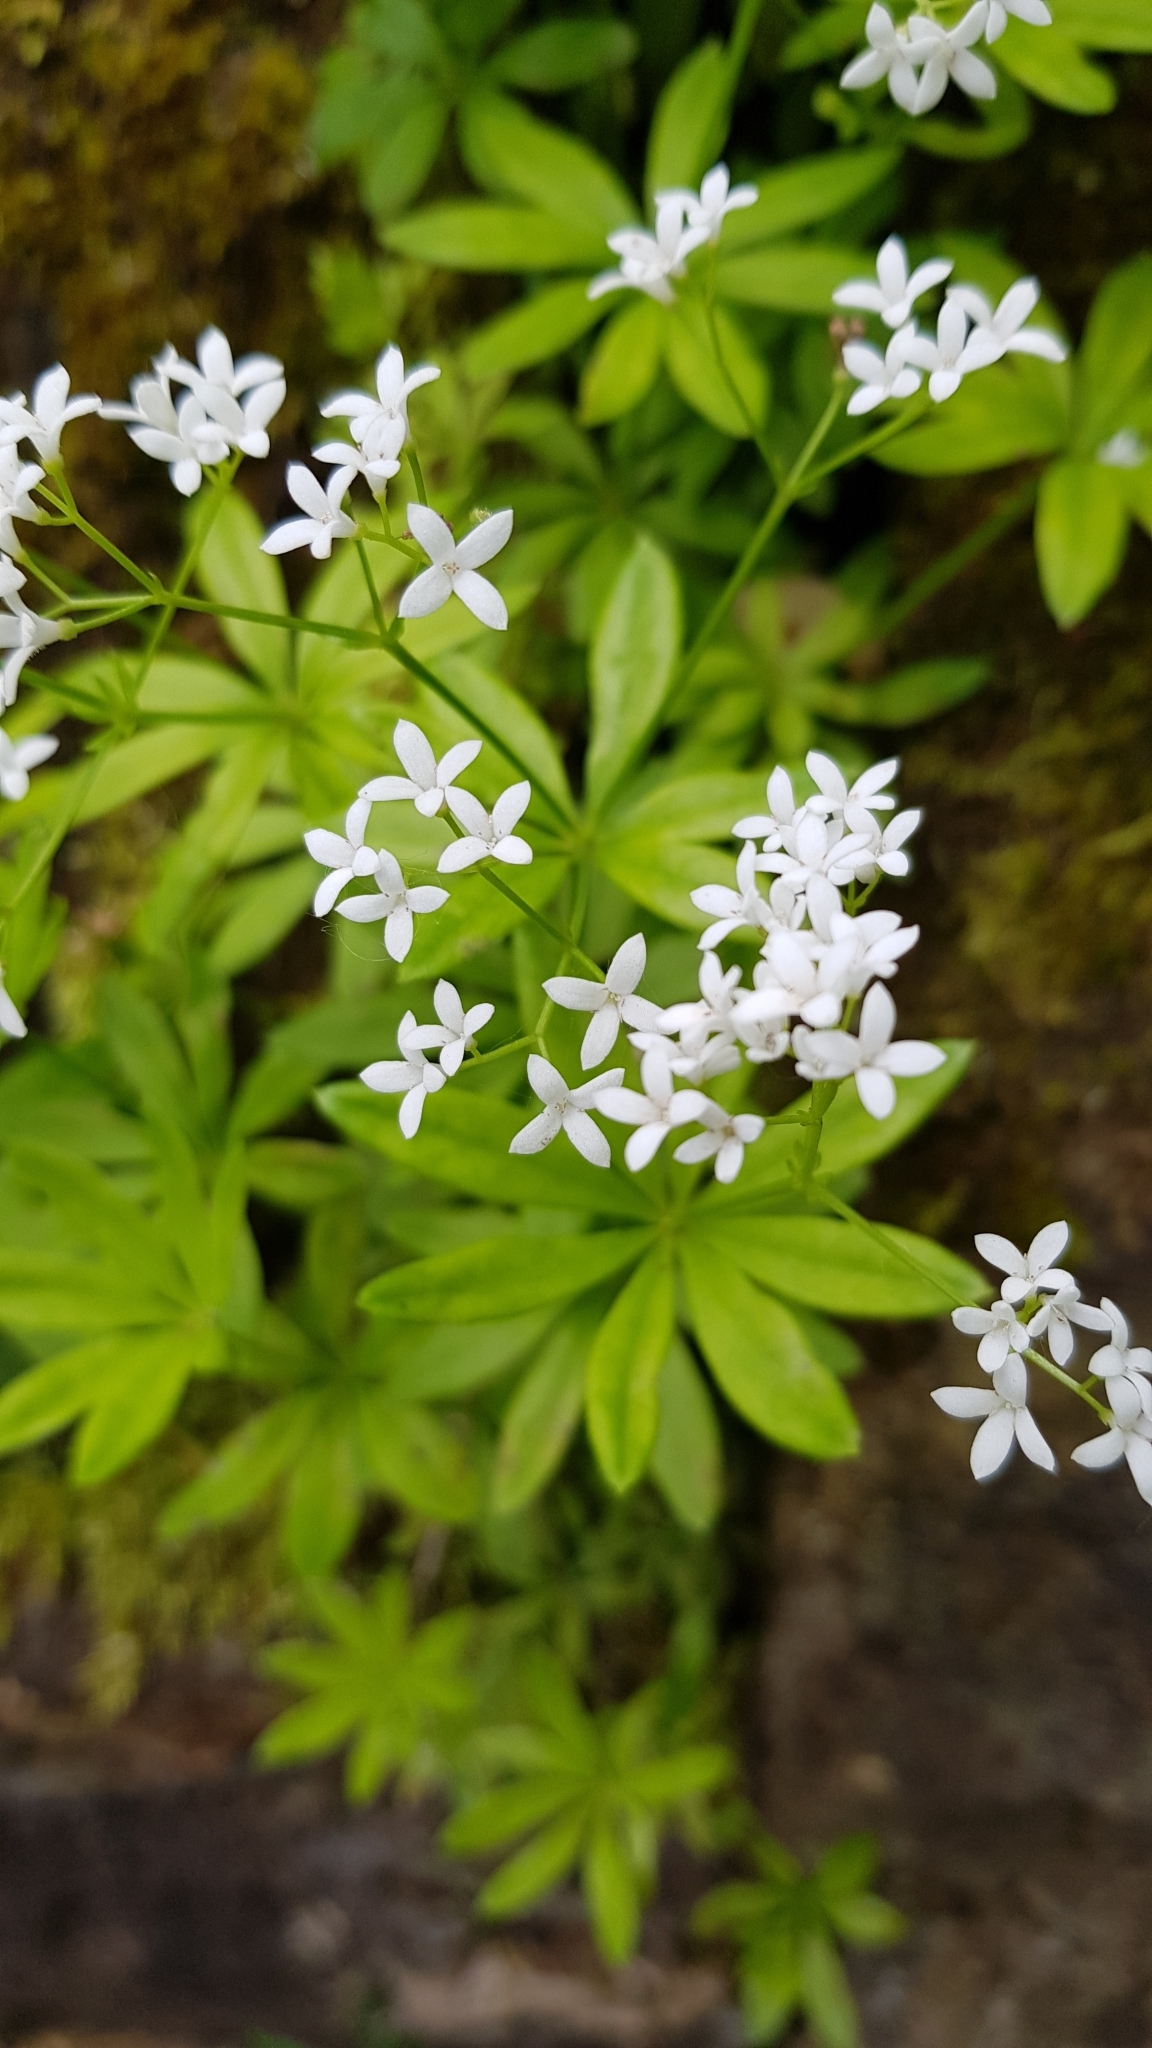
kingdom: Plantae
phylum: Tracheophyta
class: Magnoliopsida
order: Gentianales
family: Rubiaceae
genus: Galium
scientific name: Galium odoratum
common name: Sweet woodruff
